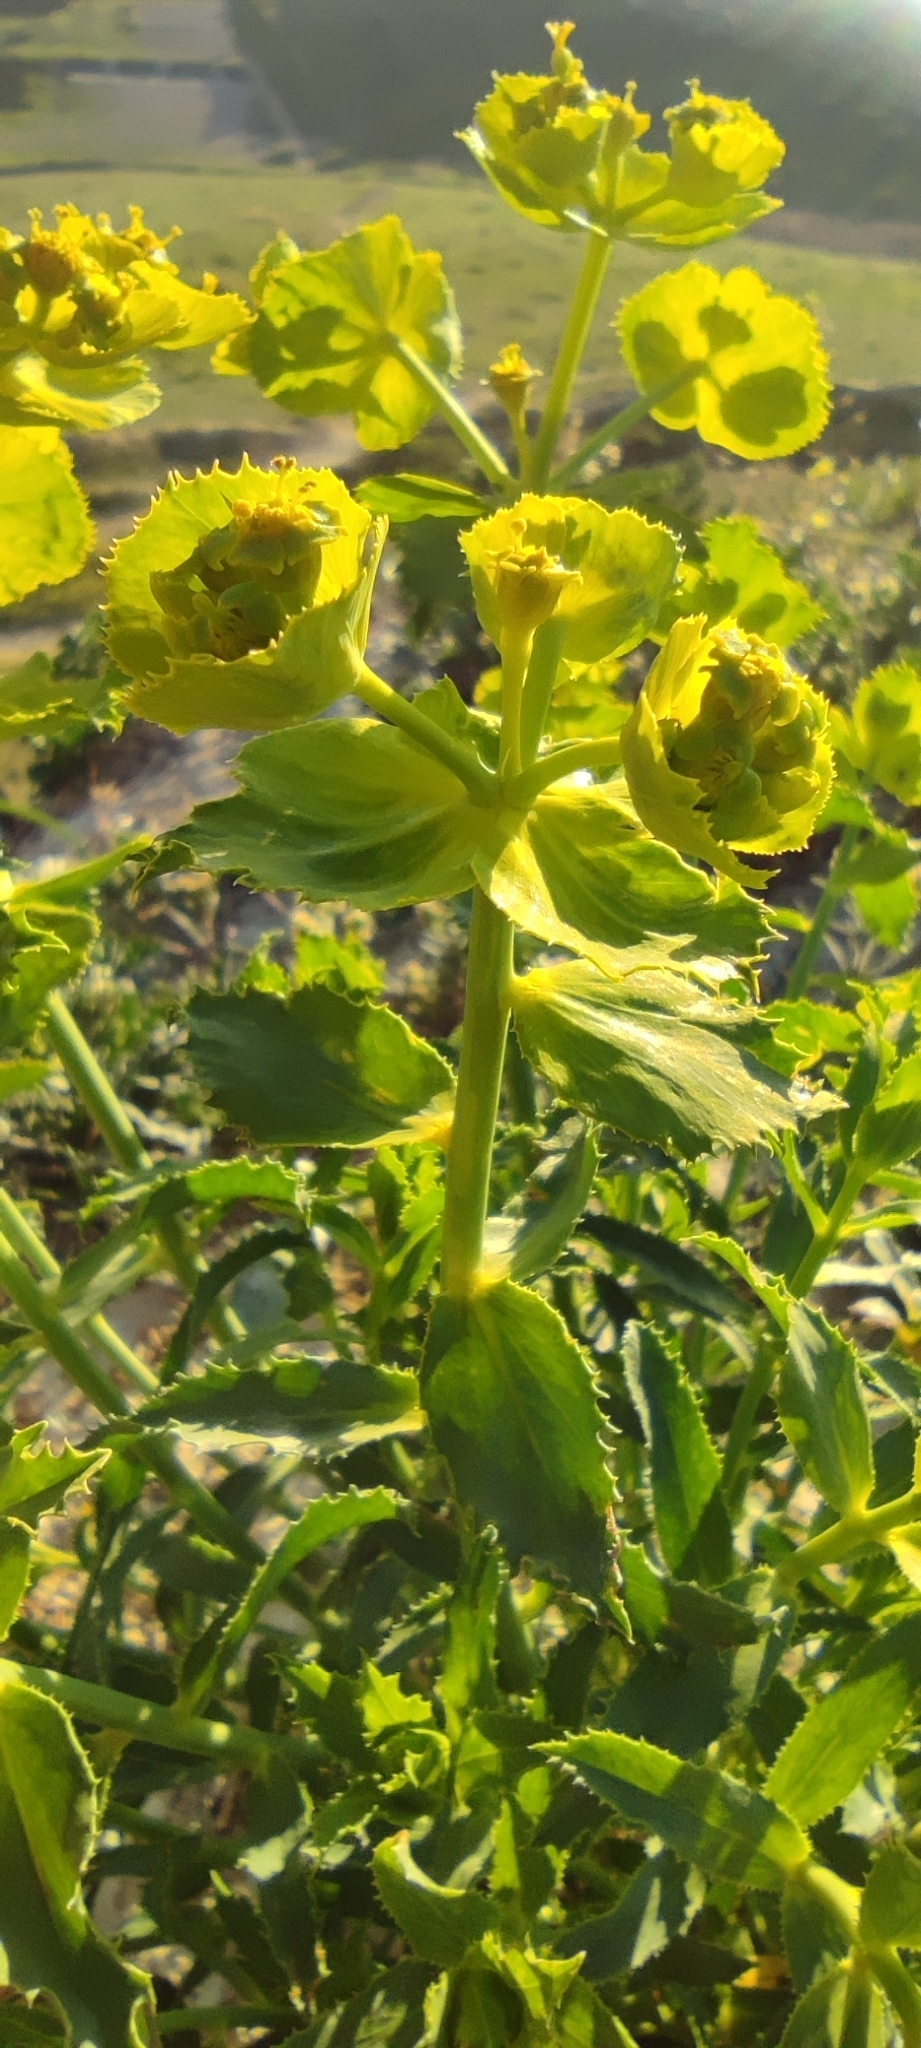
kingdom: Plantae
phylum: Tracheophyta
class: Magnoliopsida
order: Malpighiales
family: Euphorbiaceae
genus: Euphorbia
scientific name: Euphorbia serrata
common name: Serrate spurge
